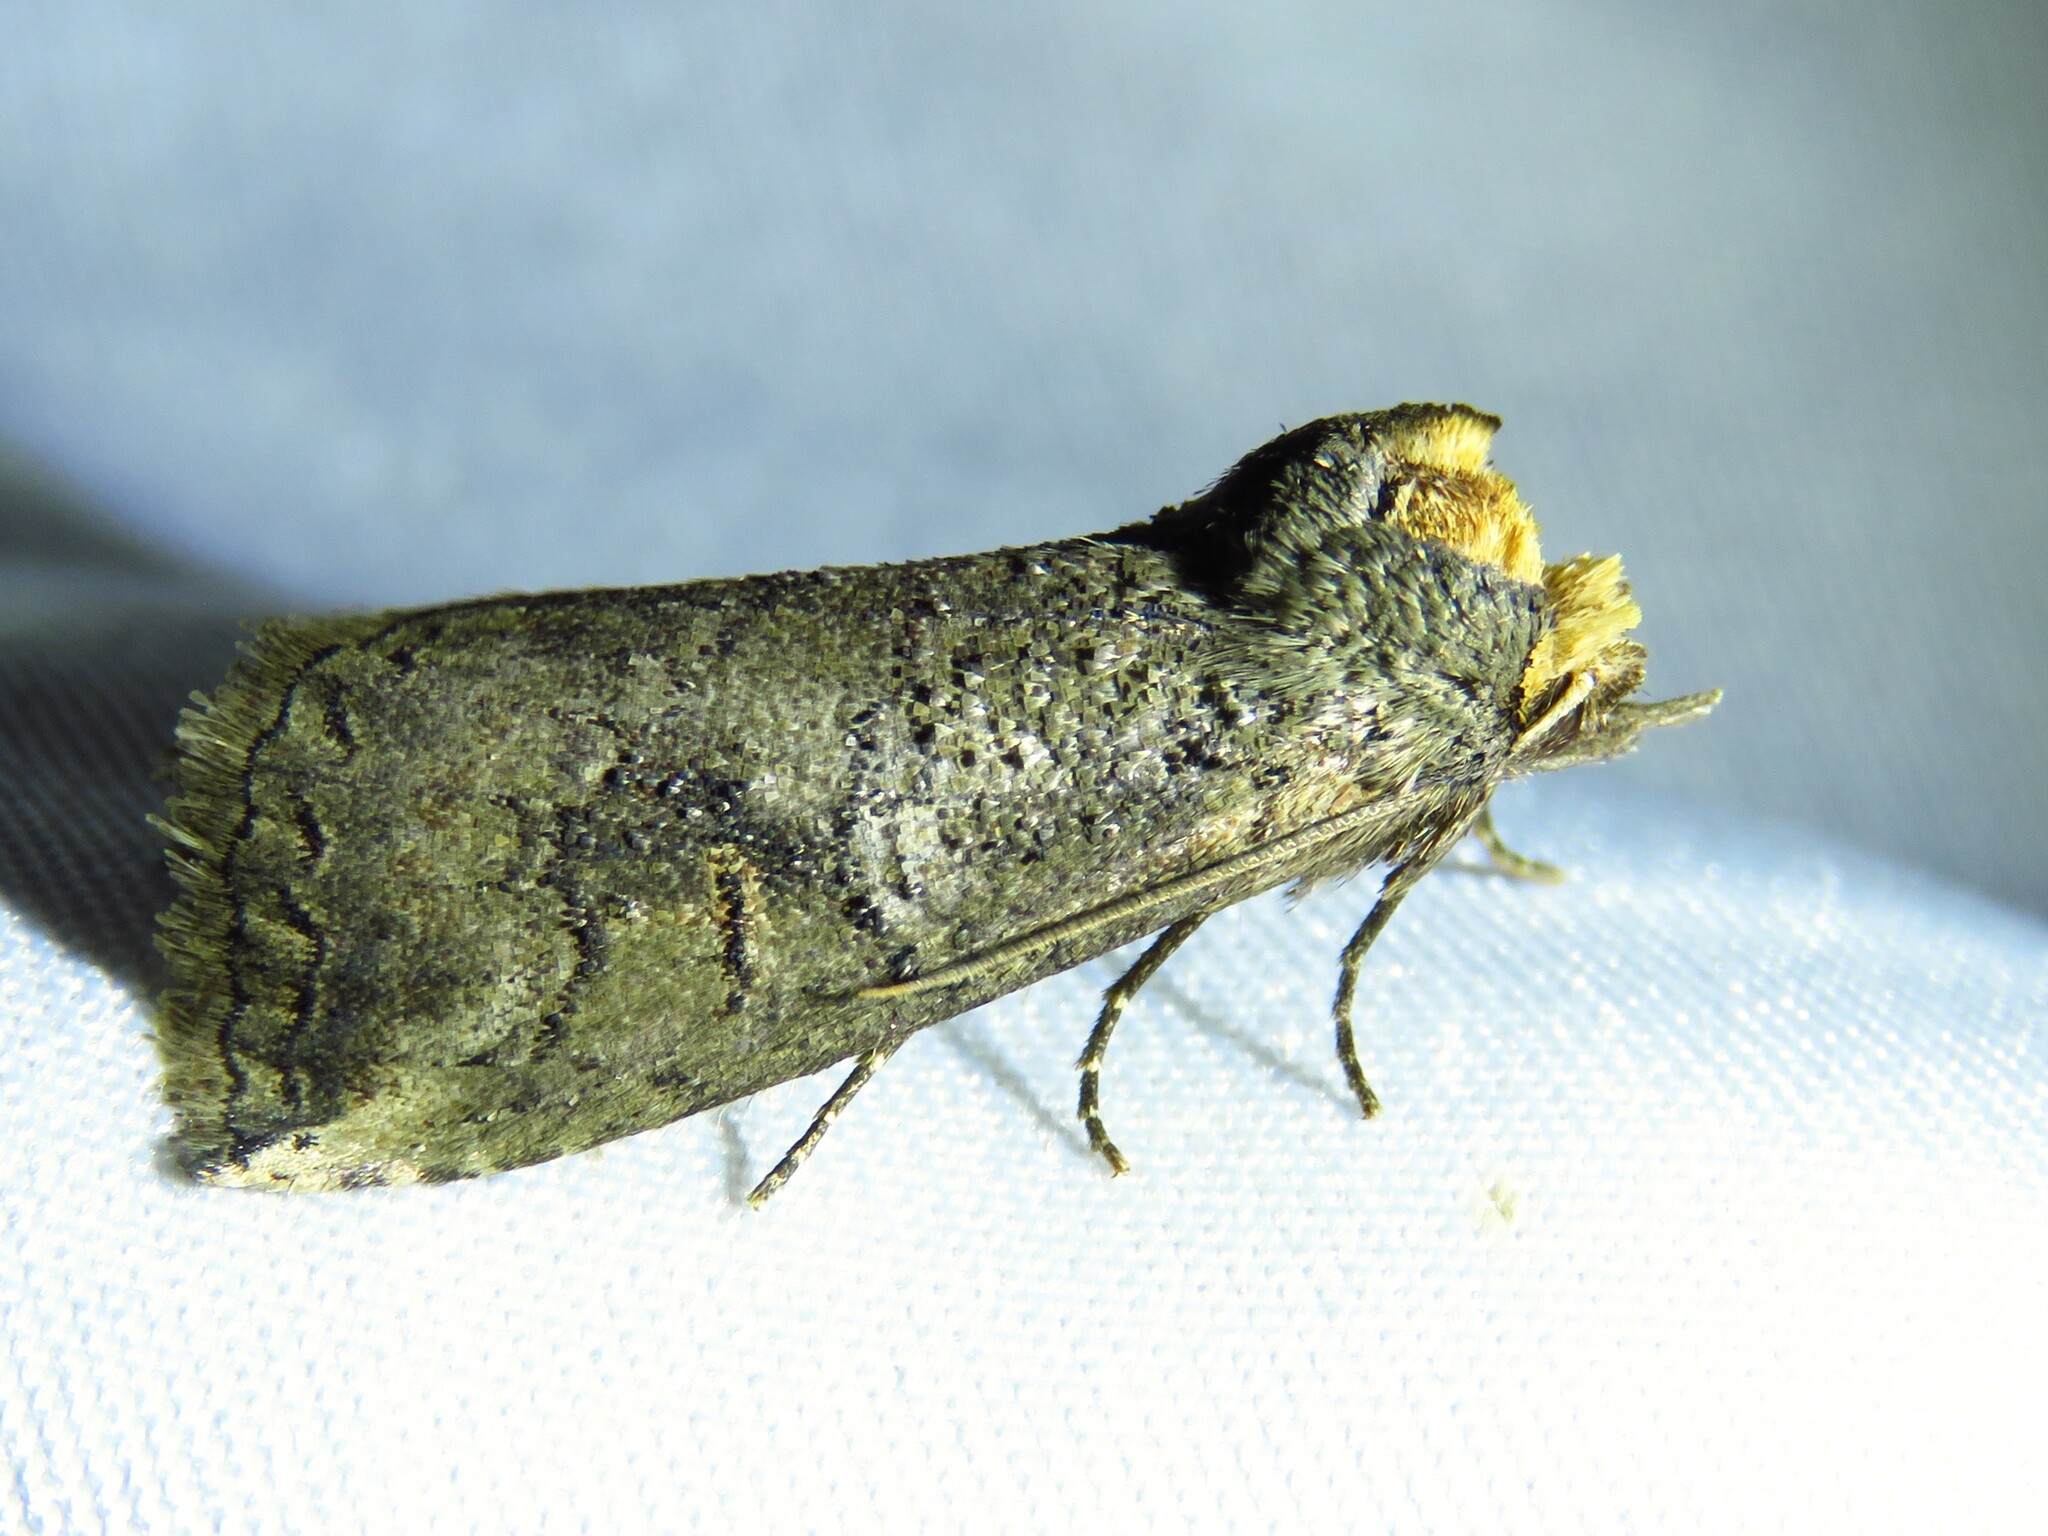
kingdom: Animalia
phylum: Arthropoda
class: Insecta
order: Lepidoptera
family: Notodontidae
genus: Elasmia
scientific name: Elasmia packardii
